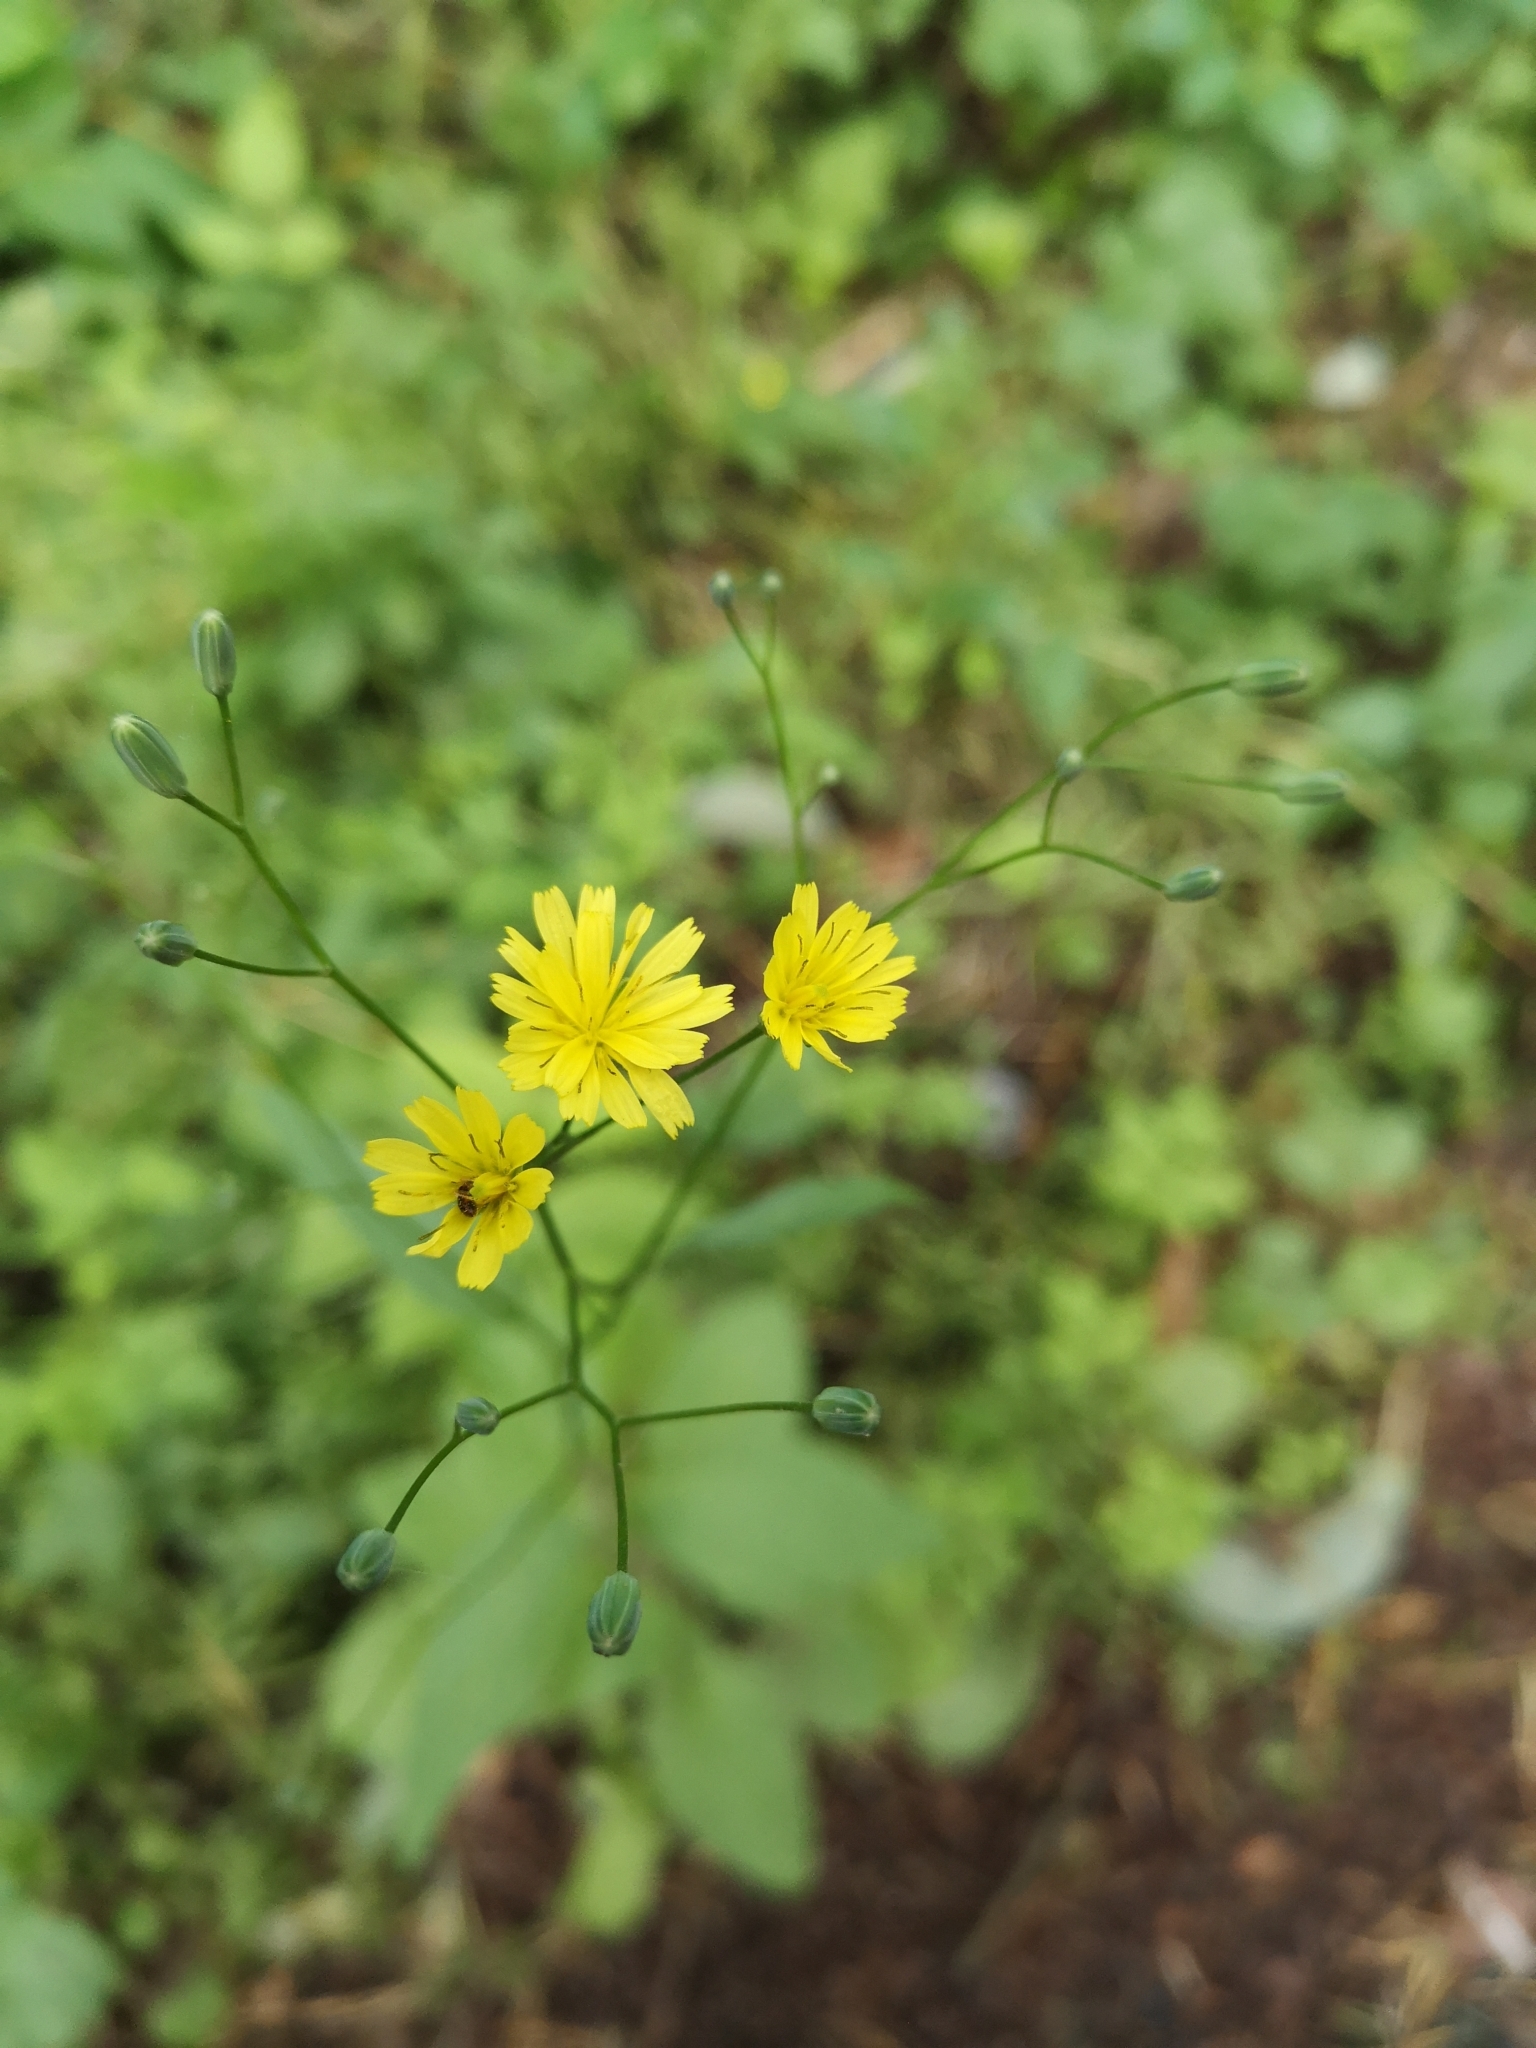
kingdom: Plantae
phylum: Tracheophyta
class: Magnoliopsida
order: Asterales
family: Asteraceae
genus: Lapsana
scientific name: Lapsana communis
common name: Nipplewort
